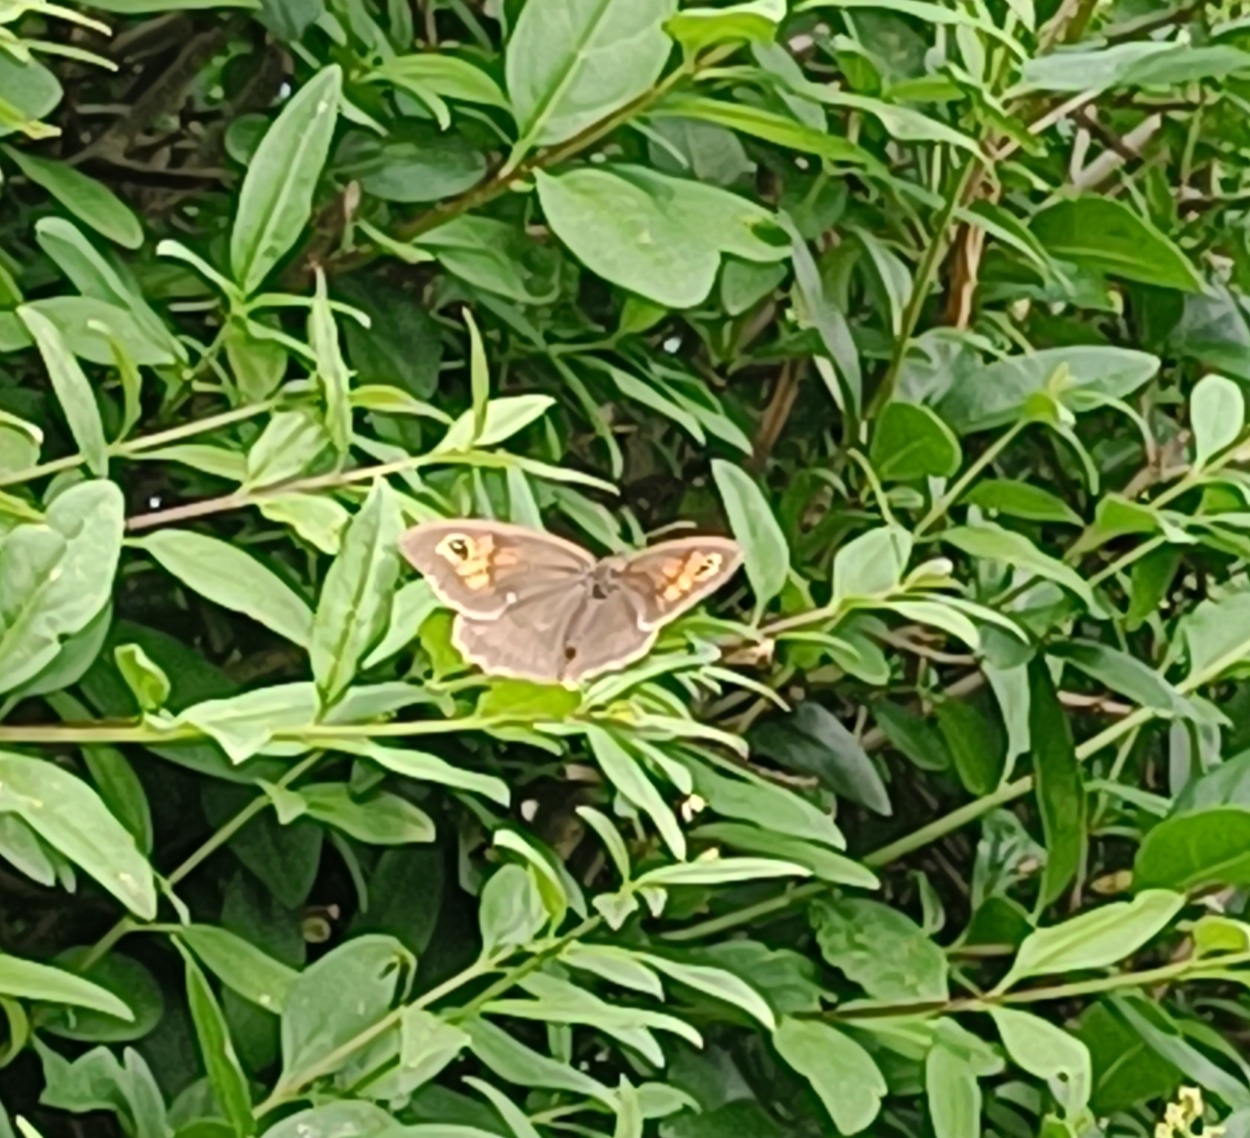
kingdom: Animalia
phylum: Arthropoda
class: Insecta
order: Lepidoptera
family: Nymphalidae
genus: Maniola
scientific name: Maniola jurtina
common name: Meadow brown
